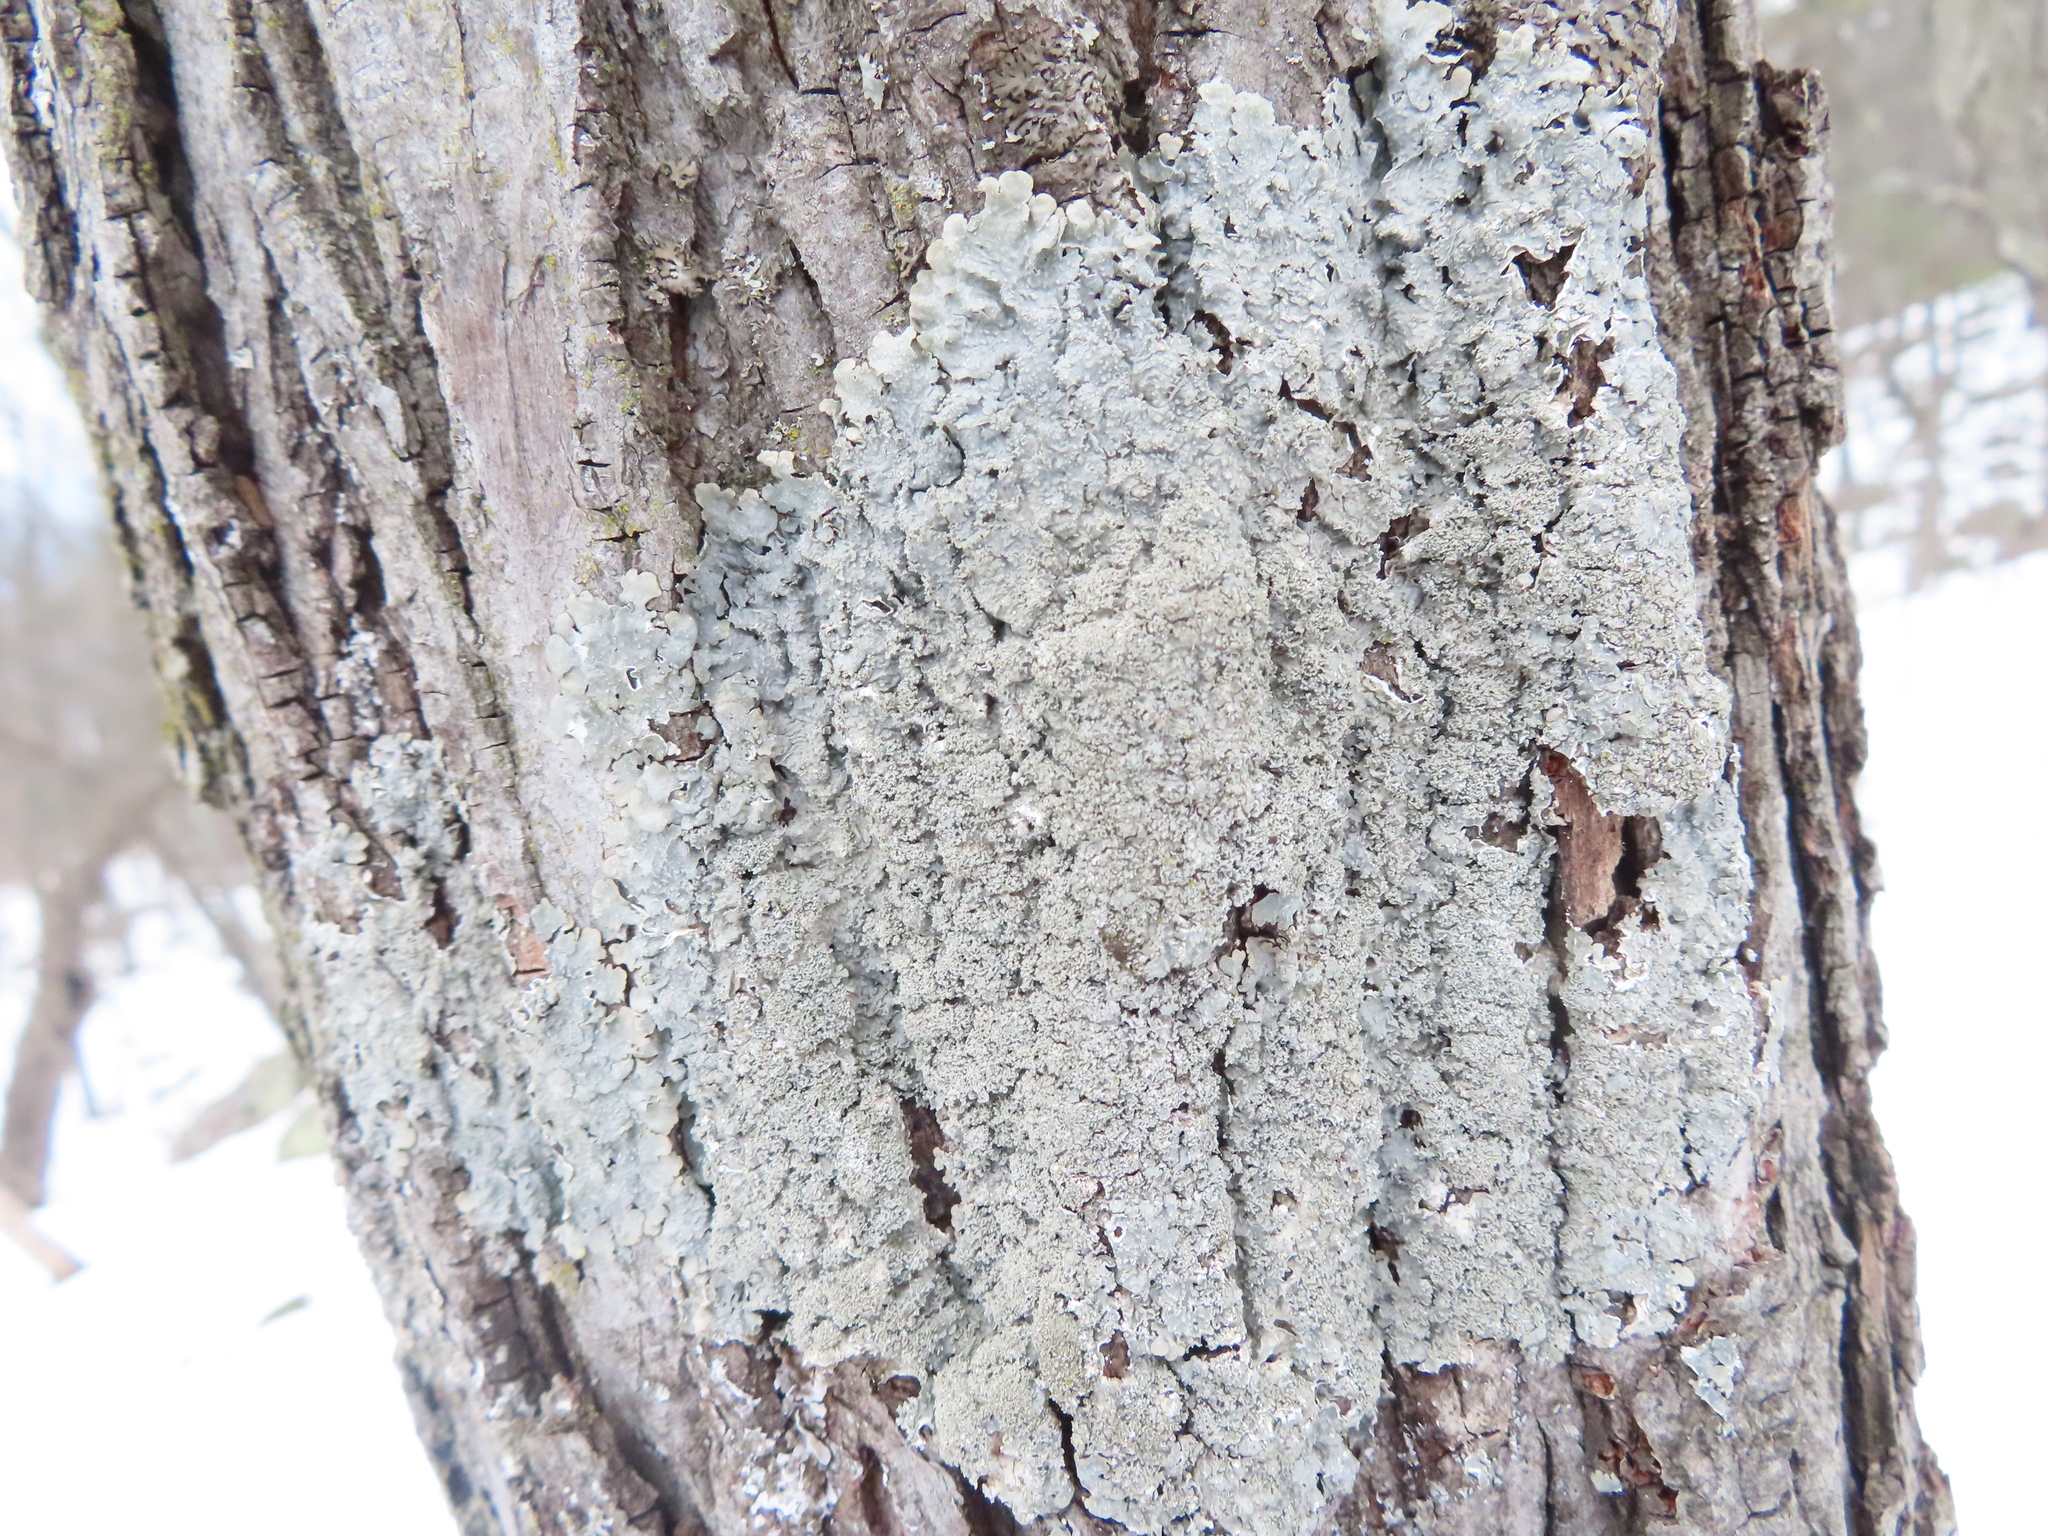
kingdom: Fungi
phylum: Ascomycota
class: Lecanoromycetes
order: Lecanorales
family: Parmeliaceae
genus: Punctelia
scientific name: Punctelia missouriensis
